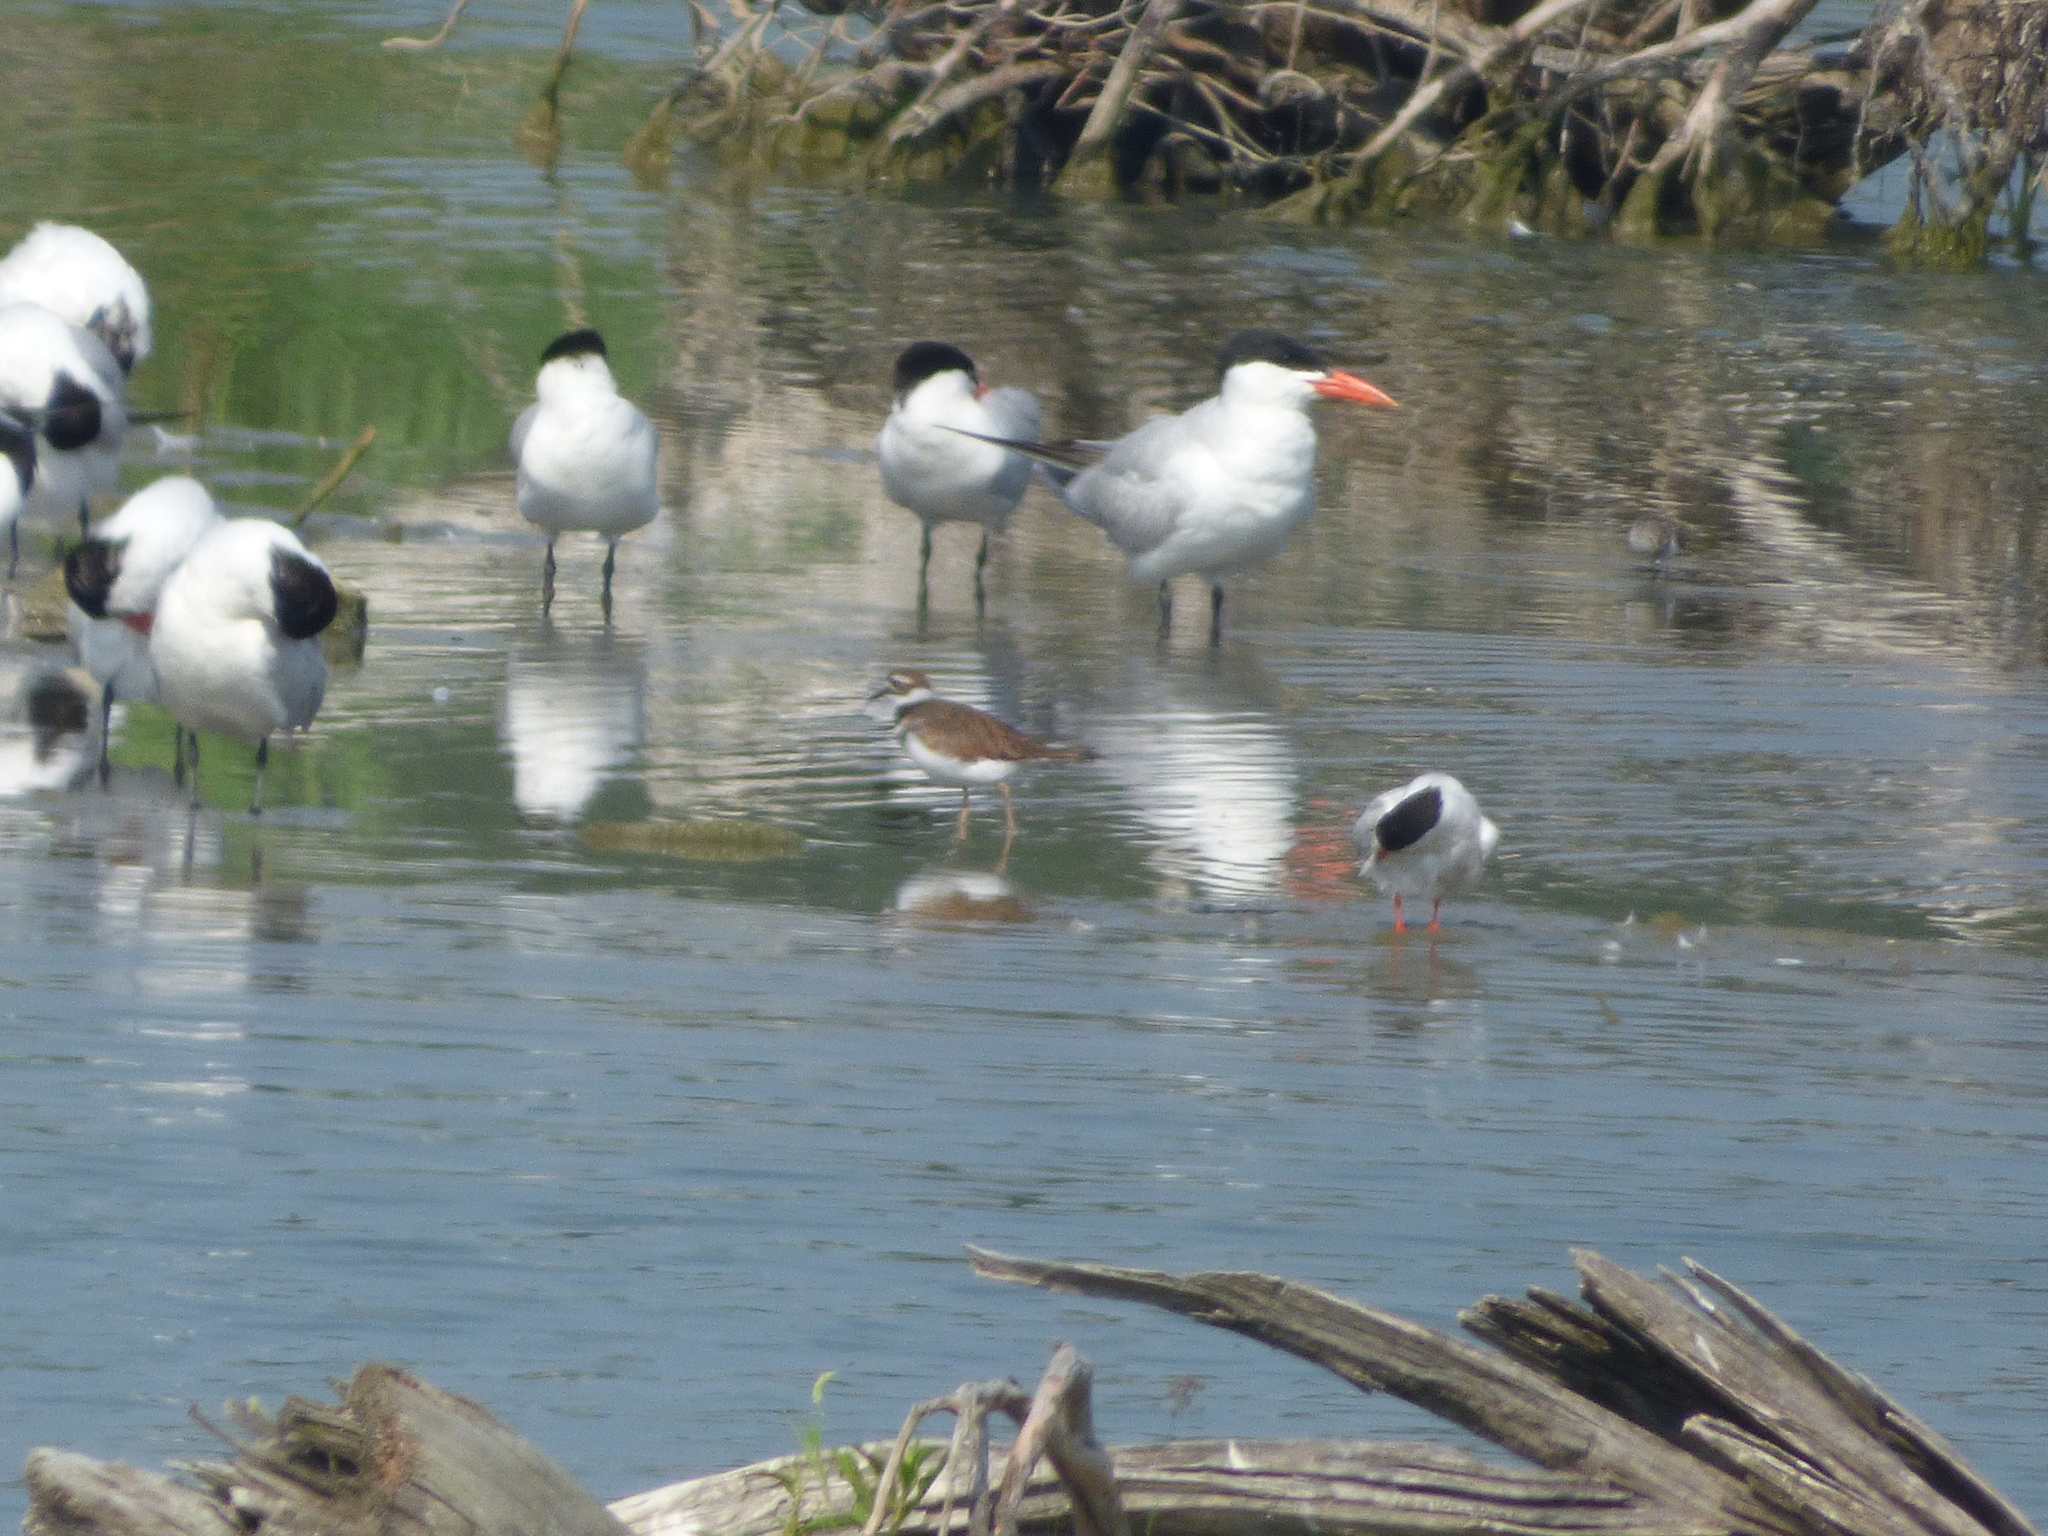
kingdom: Animalia
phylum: Chordata
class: Aves
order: Charadriiformes
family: Charadriidae
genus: Charadrius
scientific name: Charadrius vociferus
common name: Killdeer
